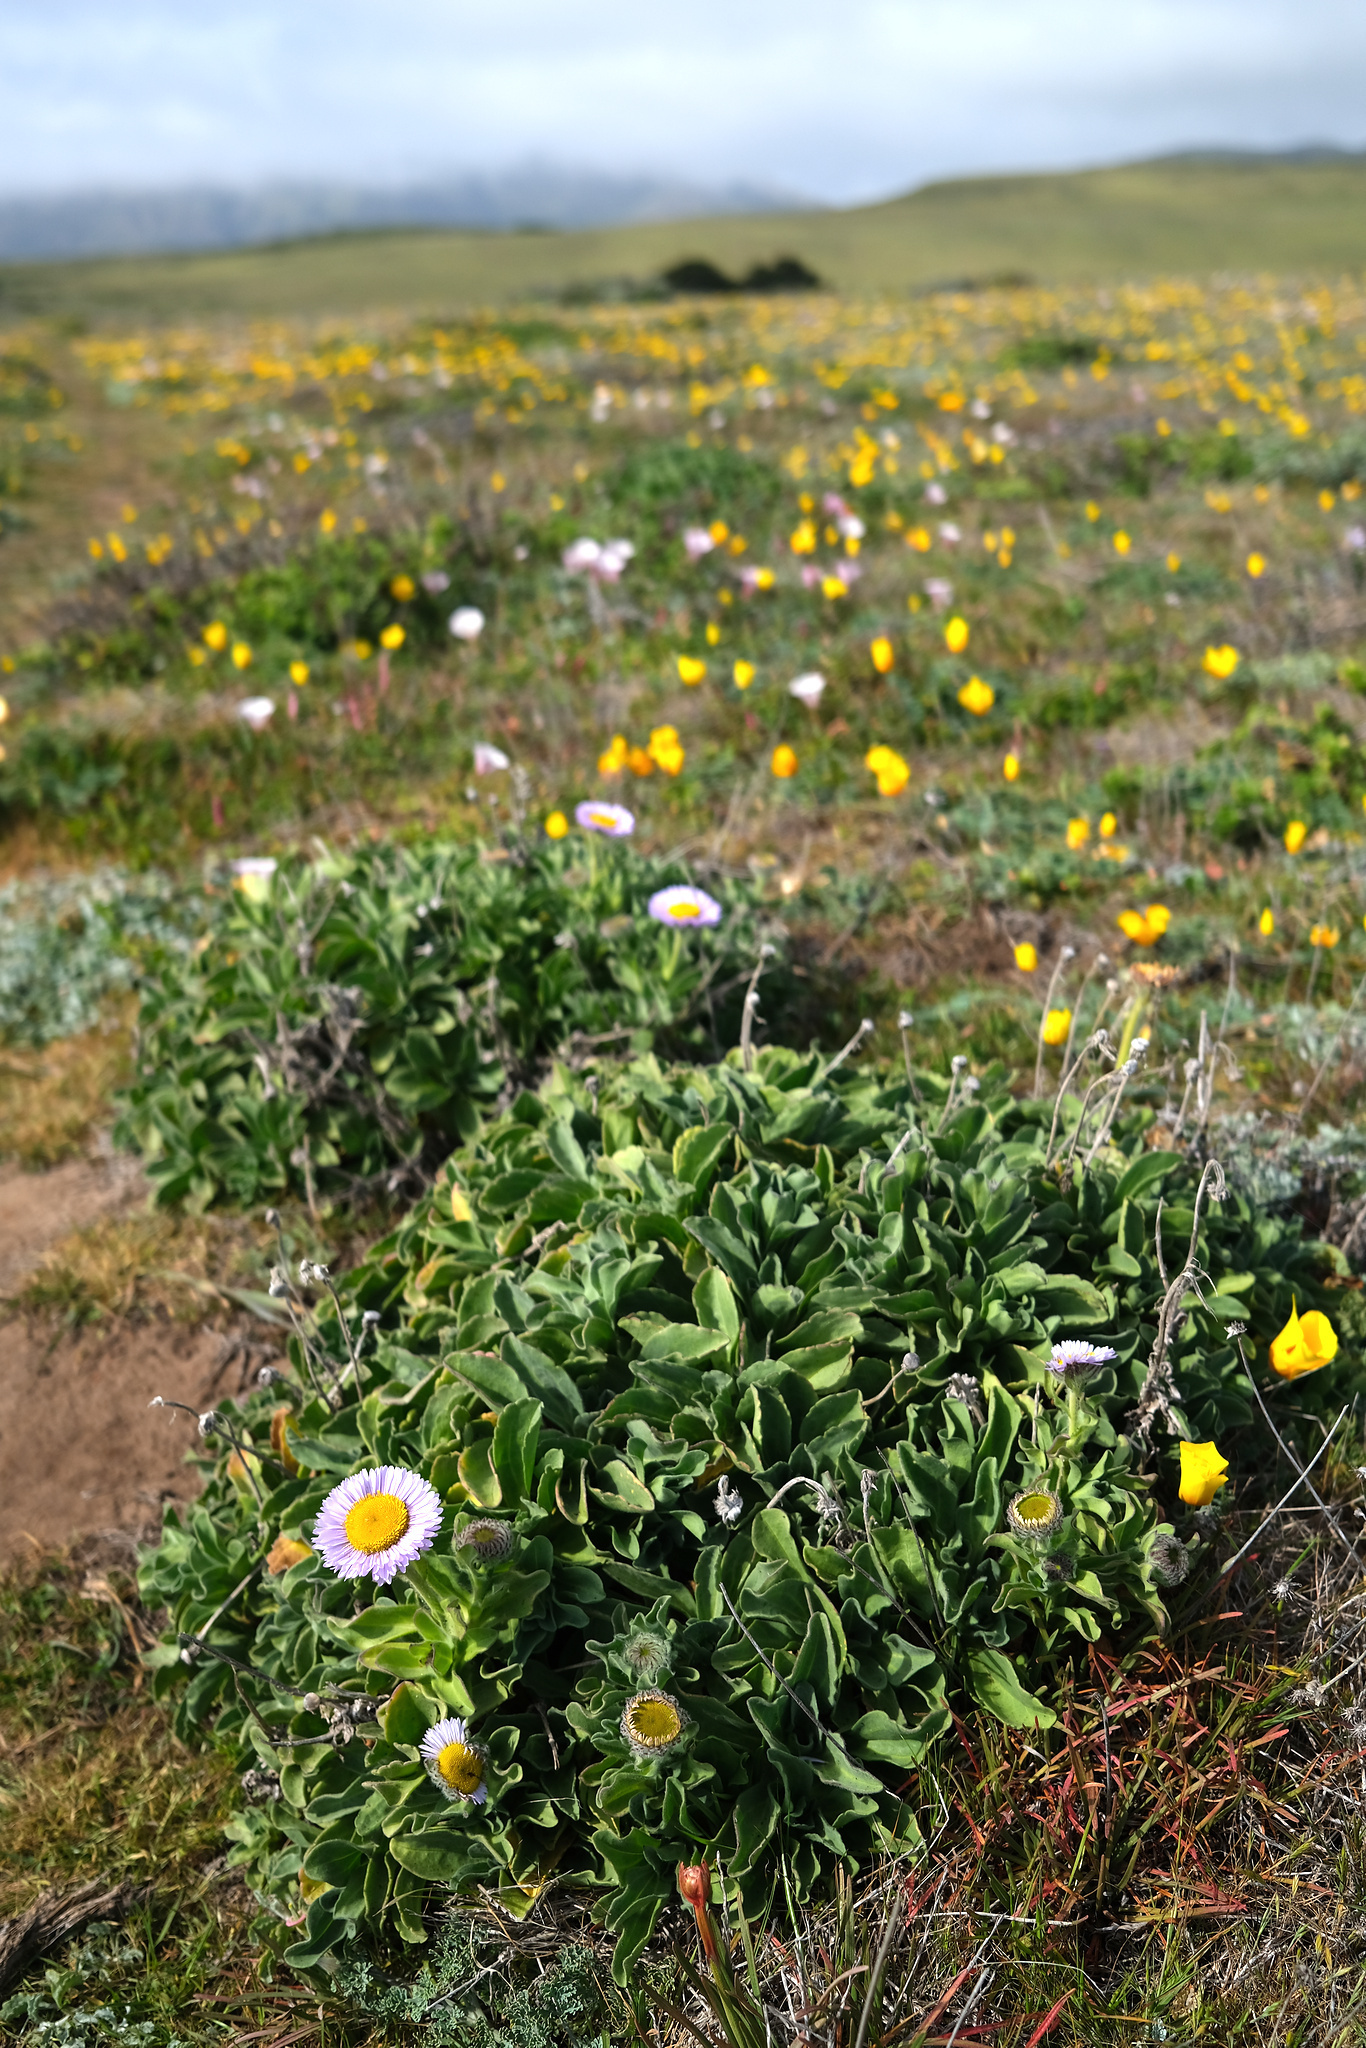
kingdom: Plantae
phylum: Tracheophyta
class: Magnoliopsida
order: Asterales
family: Asteraceae
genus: Erigeron
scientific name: Erigeron glaucus
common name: Seaside daisy
